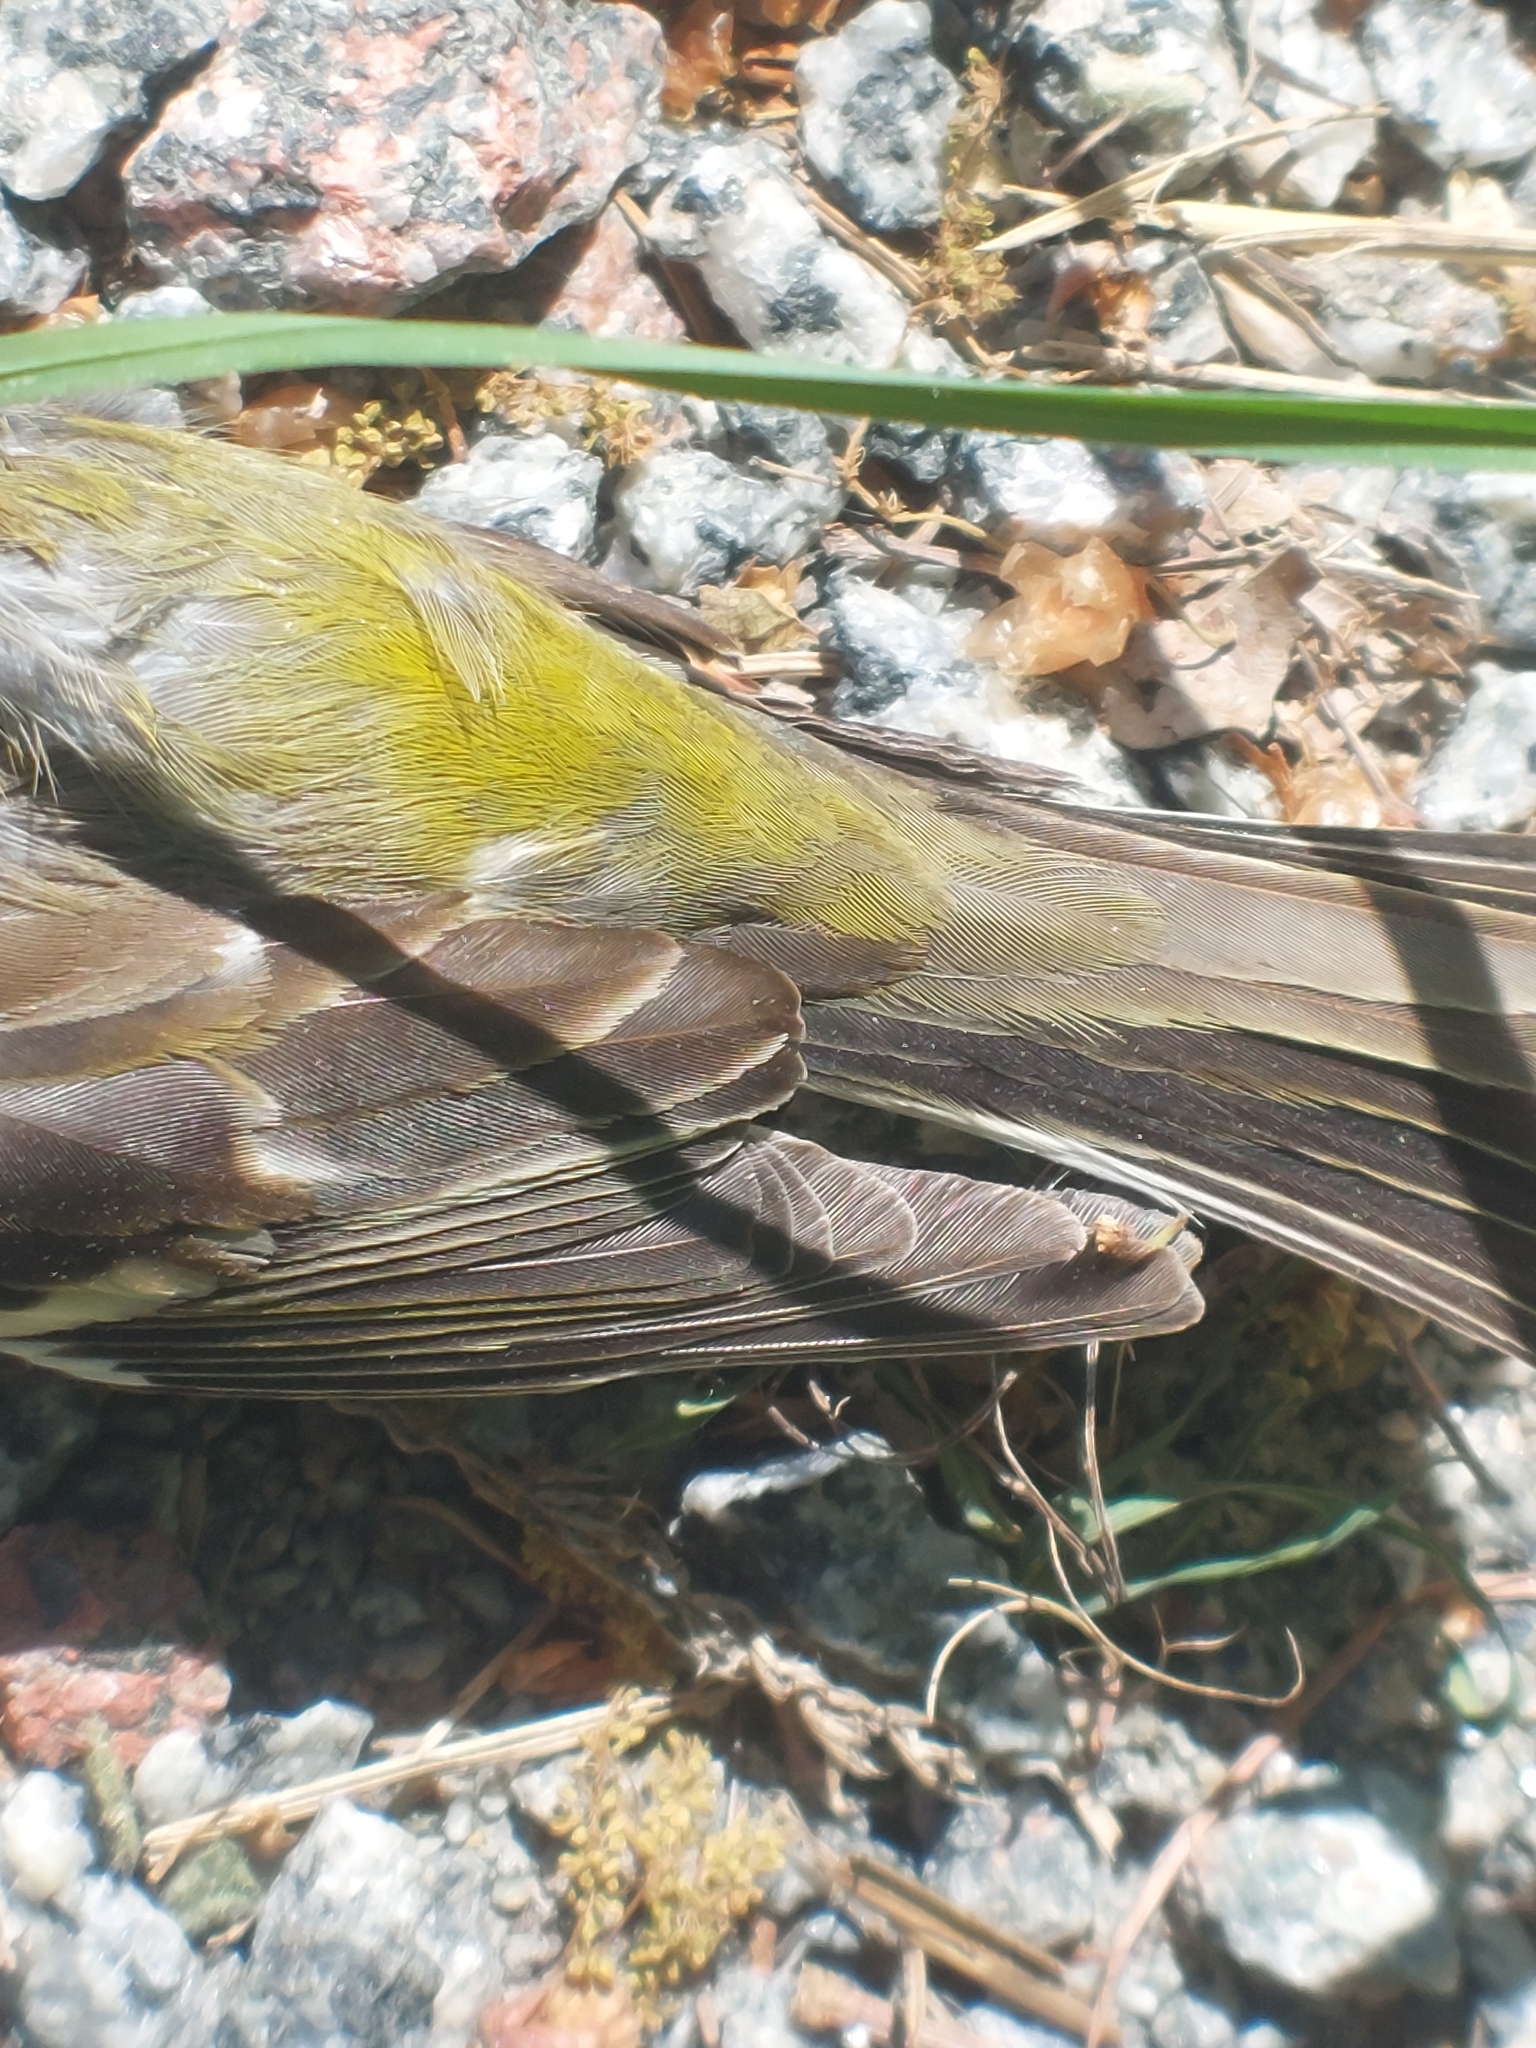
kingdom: Plantae
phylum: Tracheophyta
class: Liliopsida
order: Poales
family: Poaceae
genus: Chloris
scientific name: Chloris chloris
